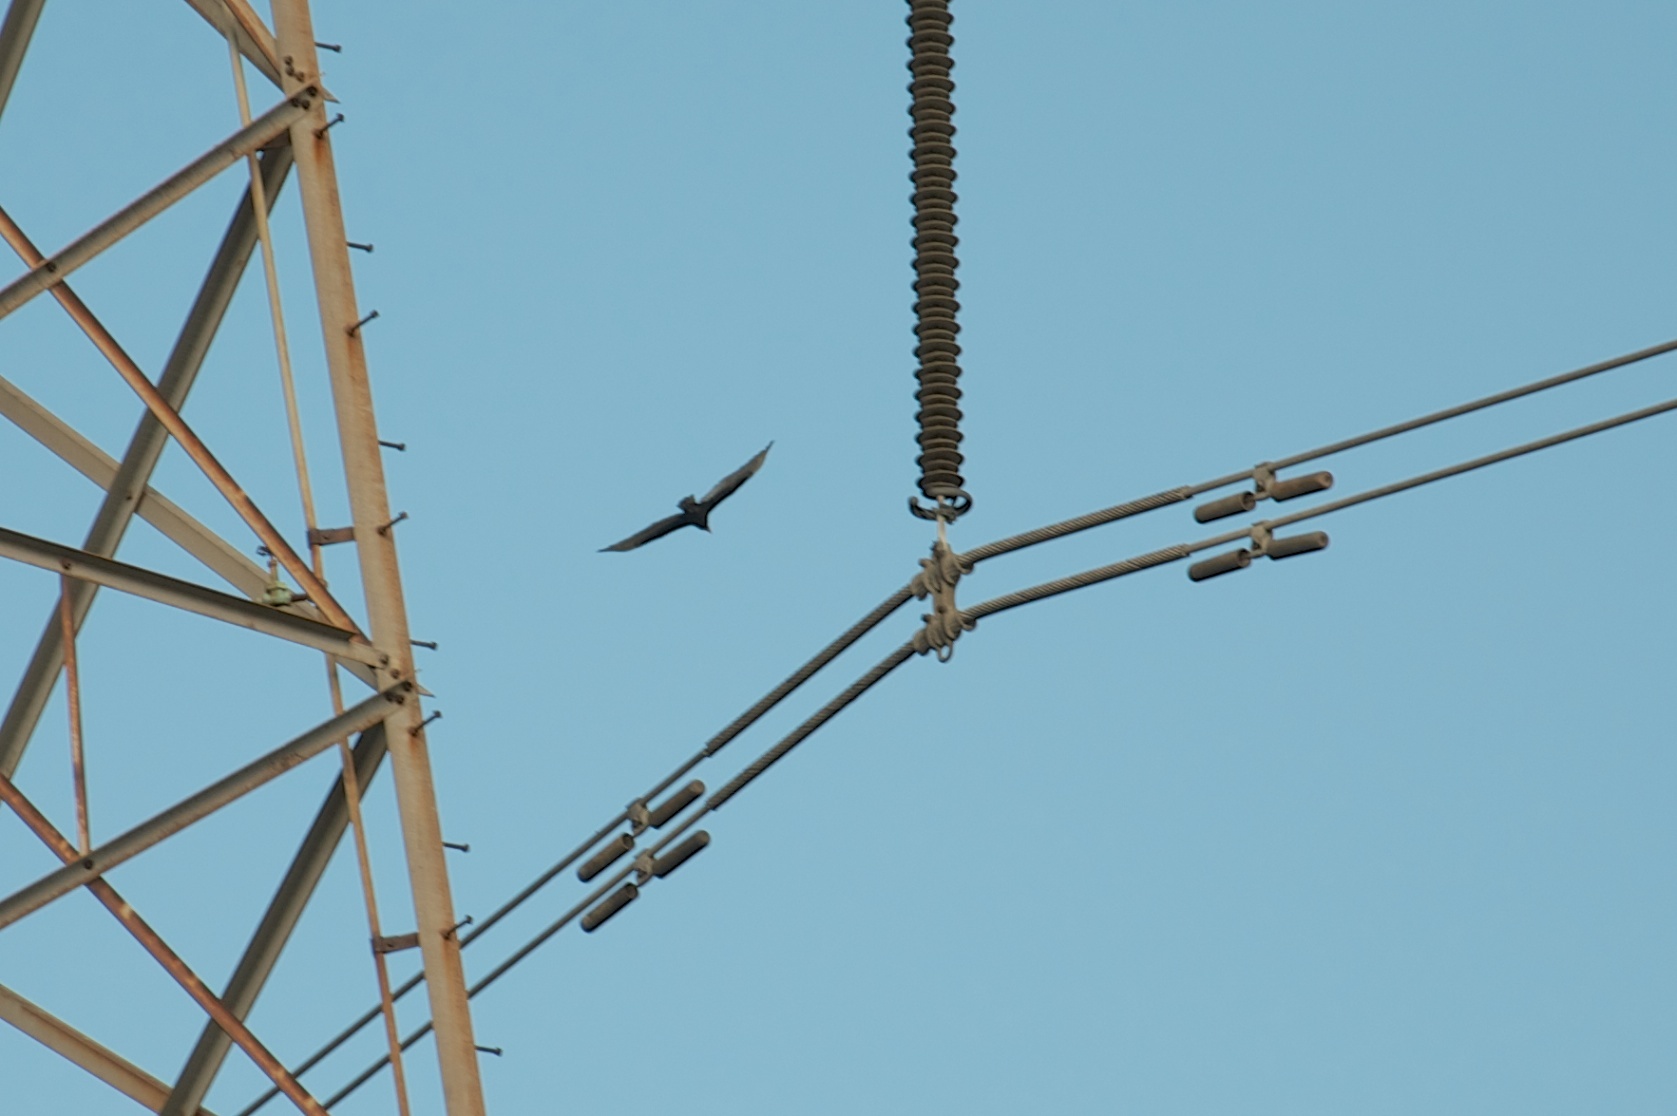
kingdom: Animalia
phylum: Chordata
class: Aves
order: Accipitriformes
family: Cathartidae
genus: Cathartes
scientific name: Cathartes aura
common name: Turkey vulture
